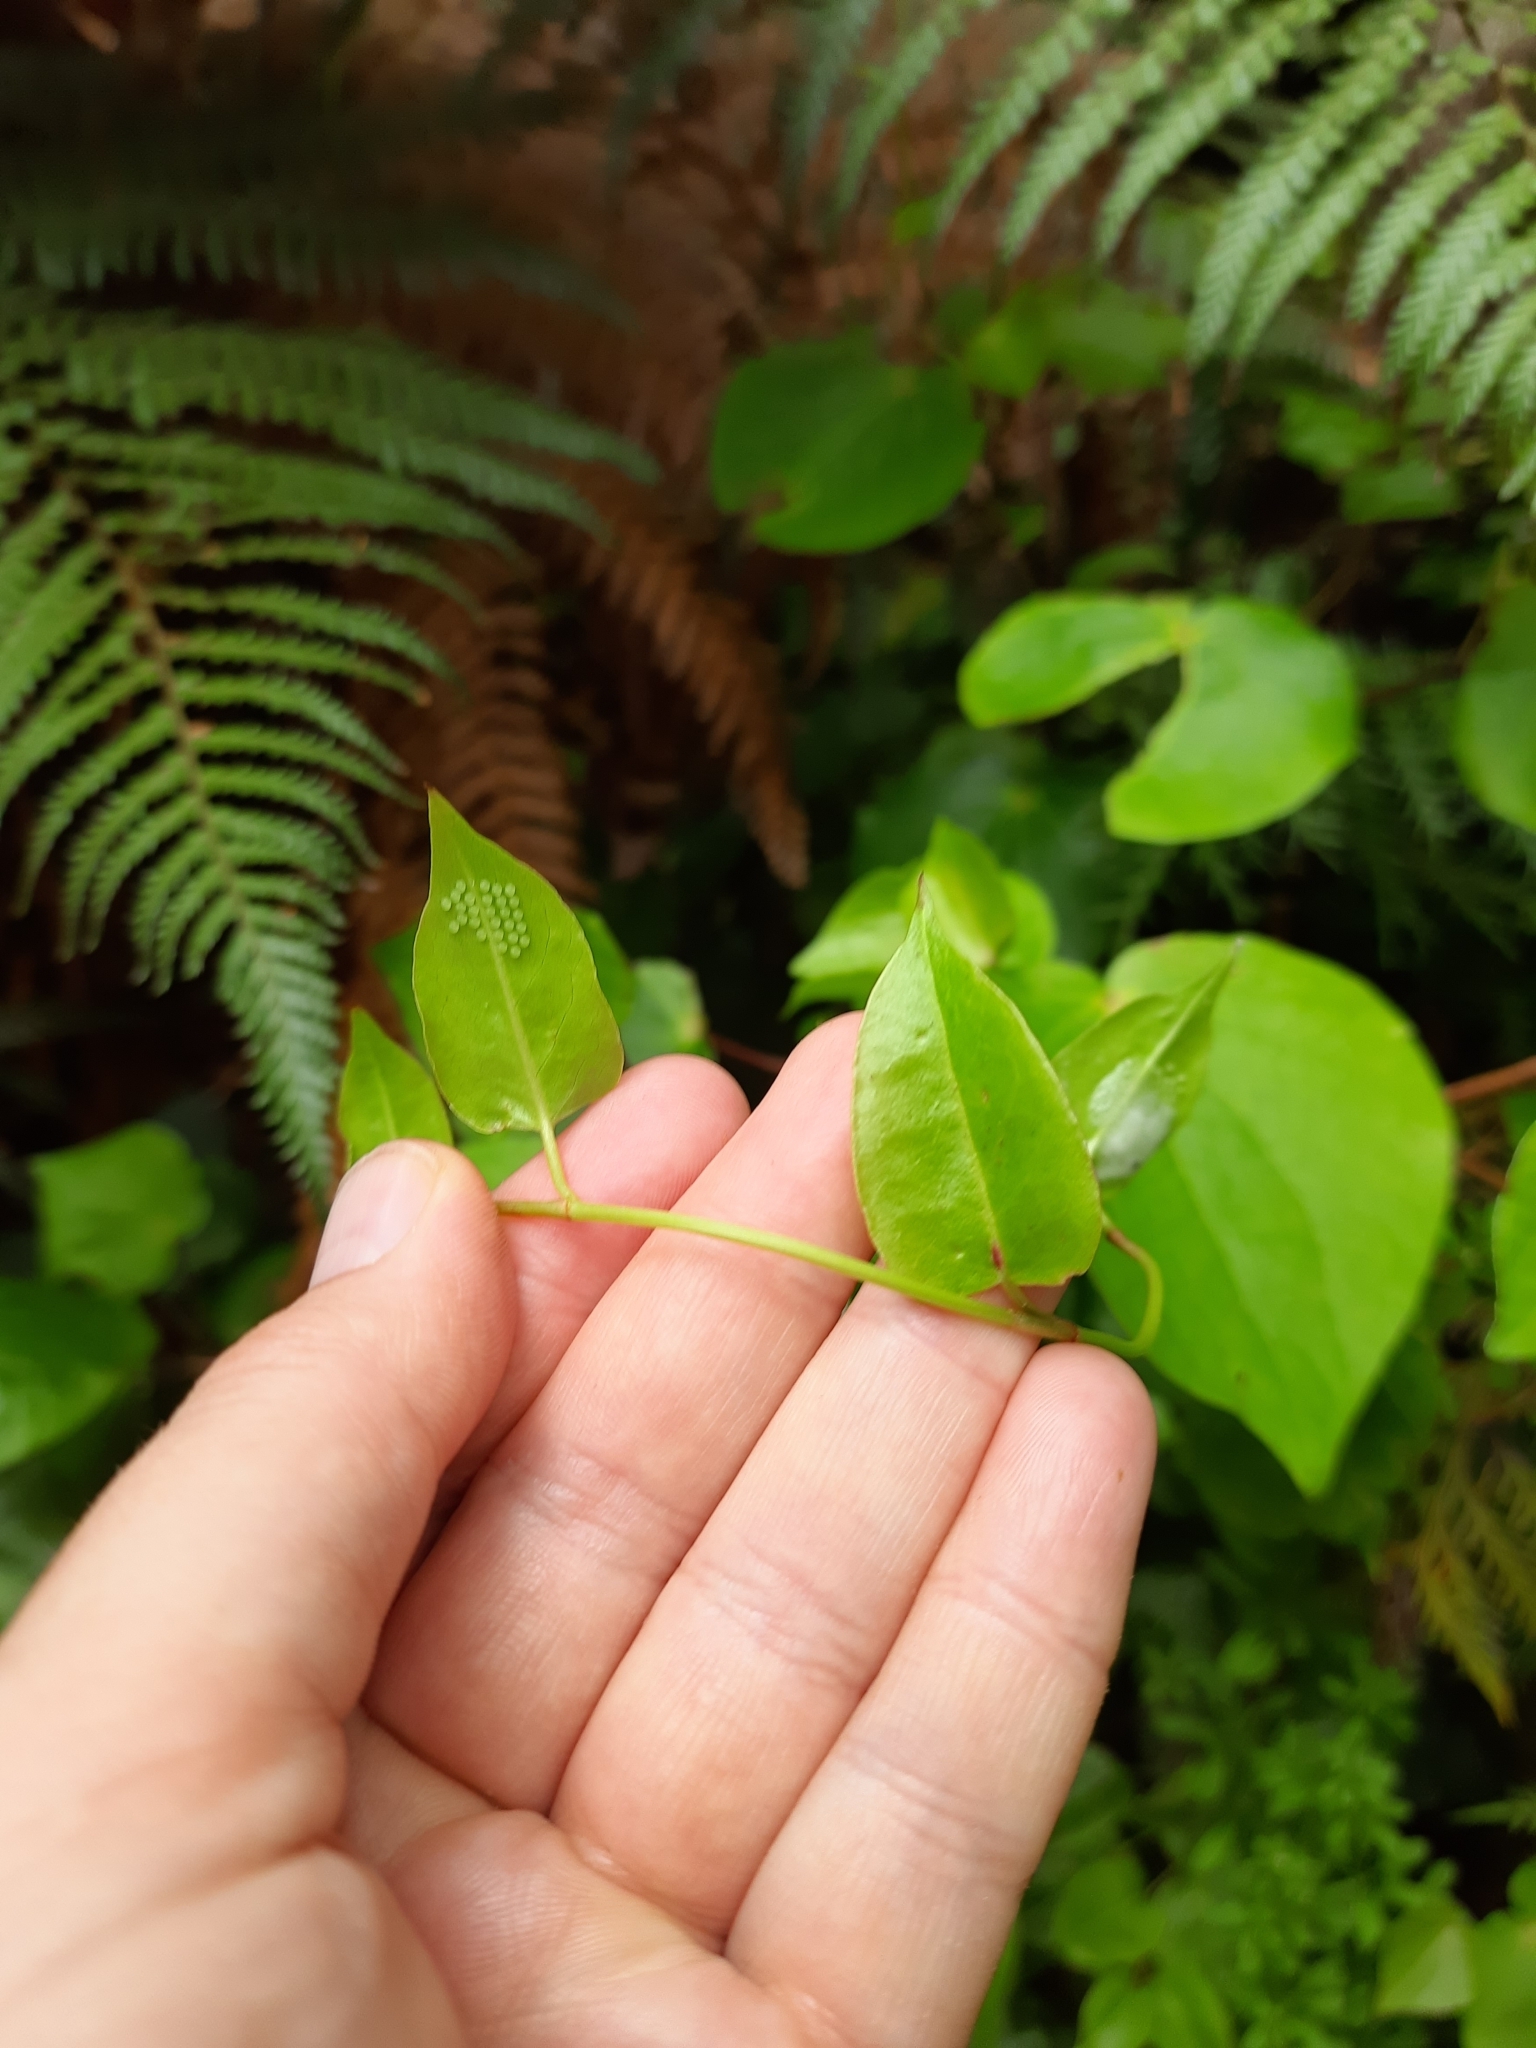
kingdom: Plantae
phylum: Tracheophyta
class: Magnoliopsida
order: Caryophyllales
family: Polygonaceae
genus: Muehlenbeckia
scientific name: Muehlenbeckia australis
